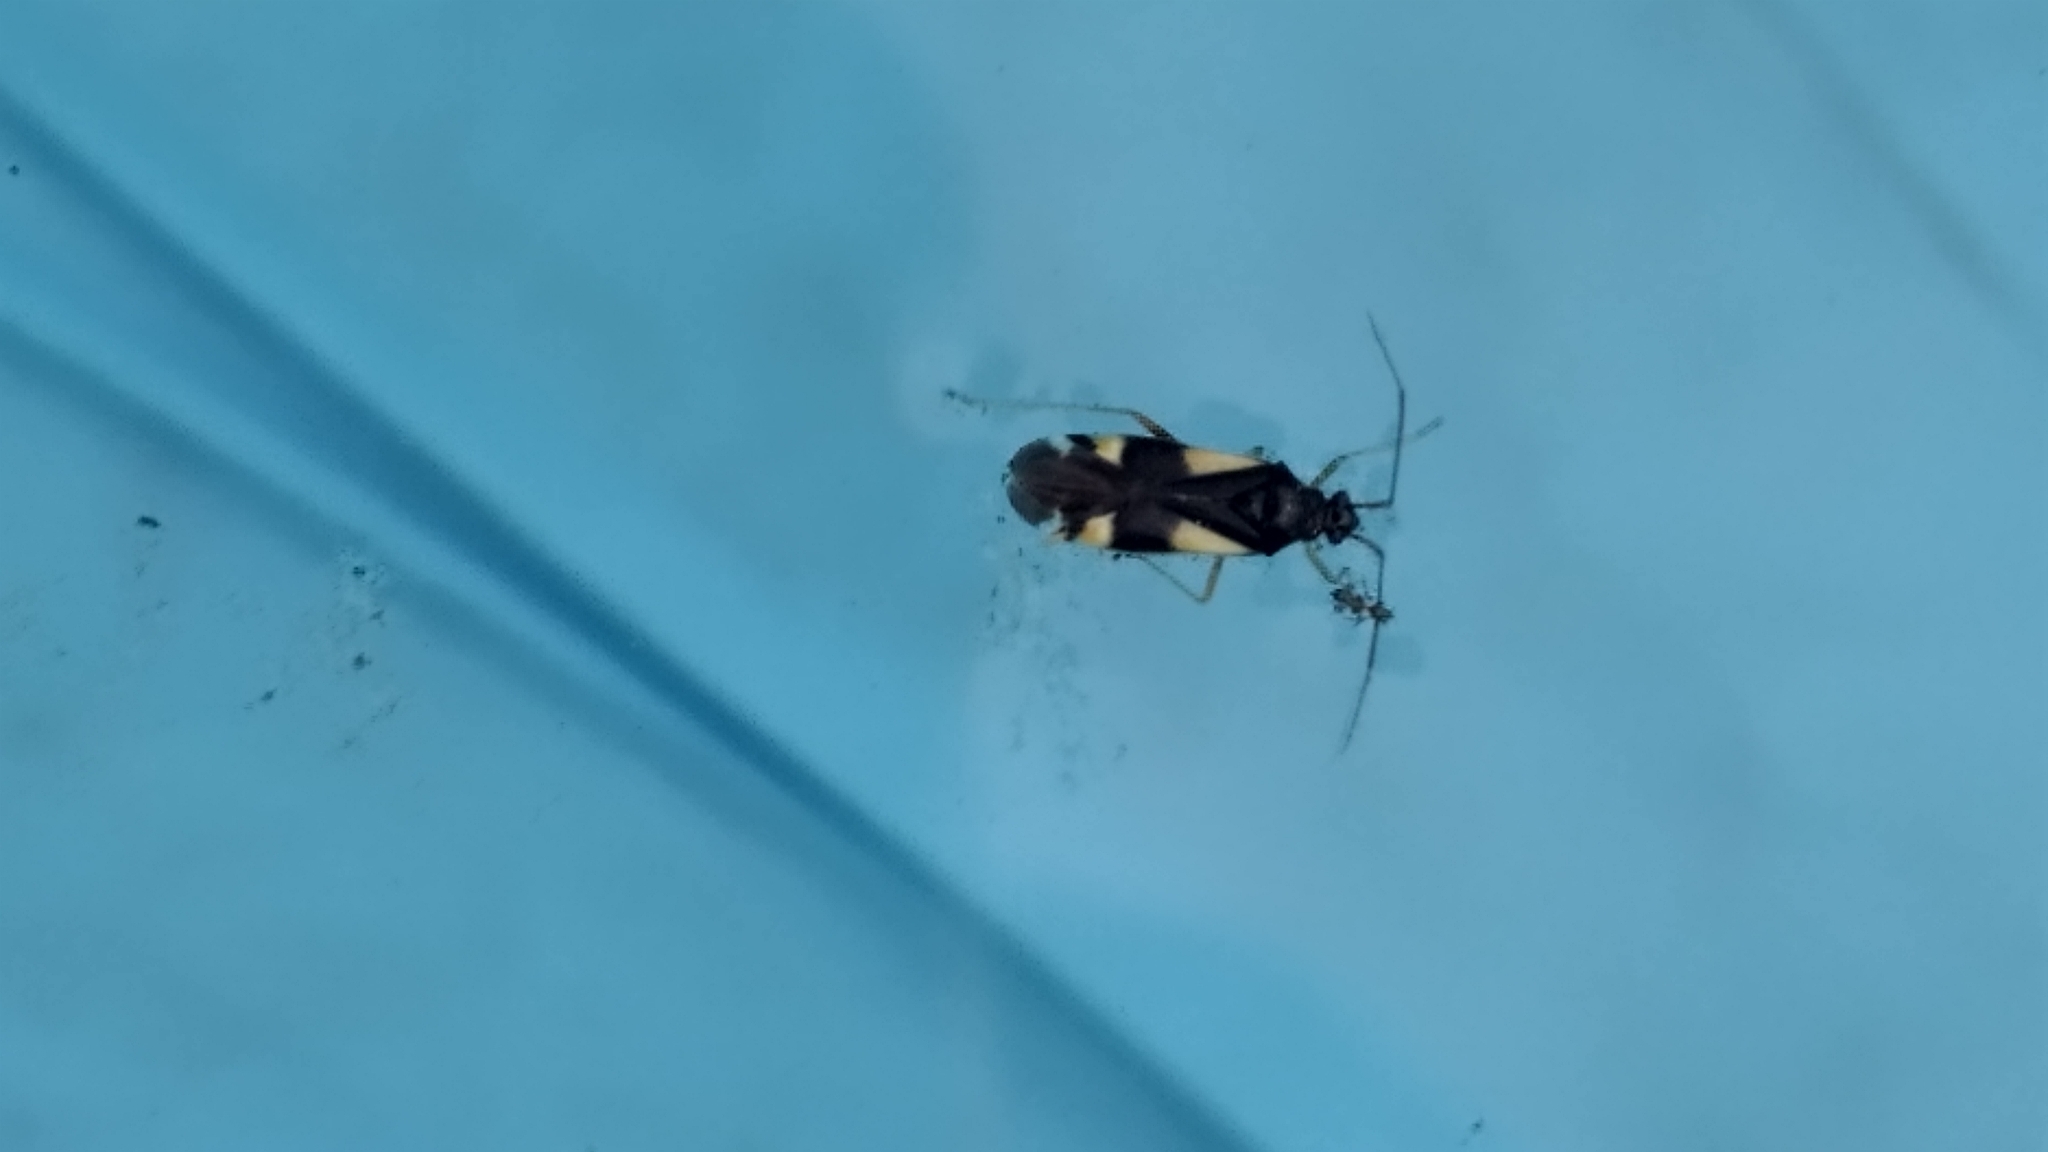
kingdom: Animalia
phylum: Arthropoda
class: Insecta
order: Hemiptera
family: Miridae
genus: Dryophilocoris
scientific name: Dryophilocoris flavoquadrimaculatus
